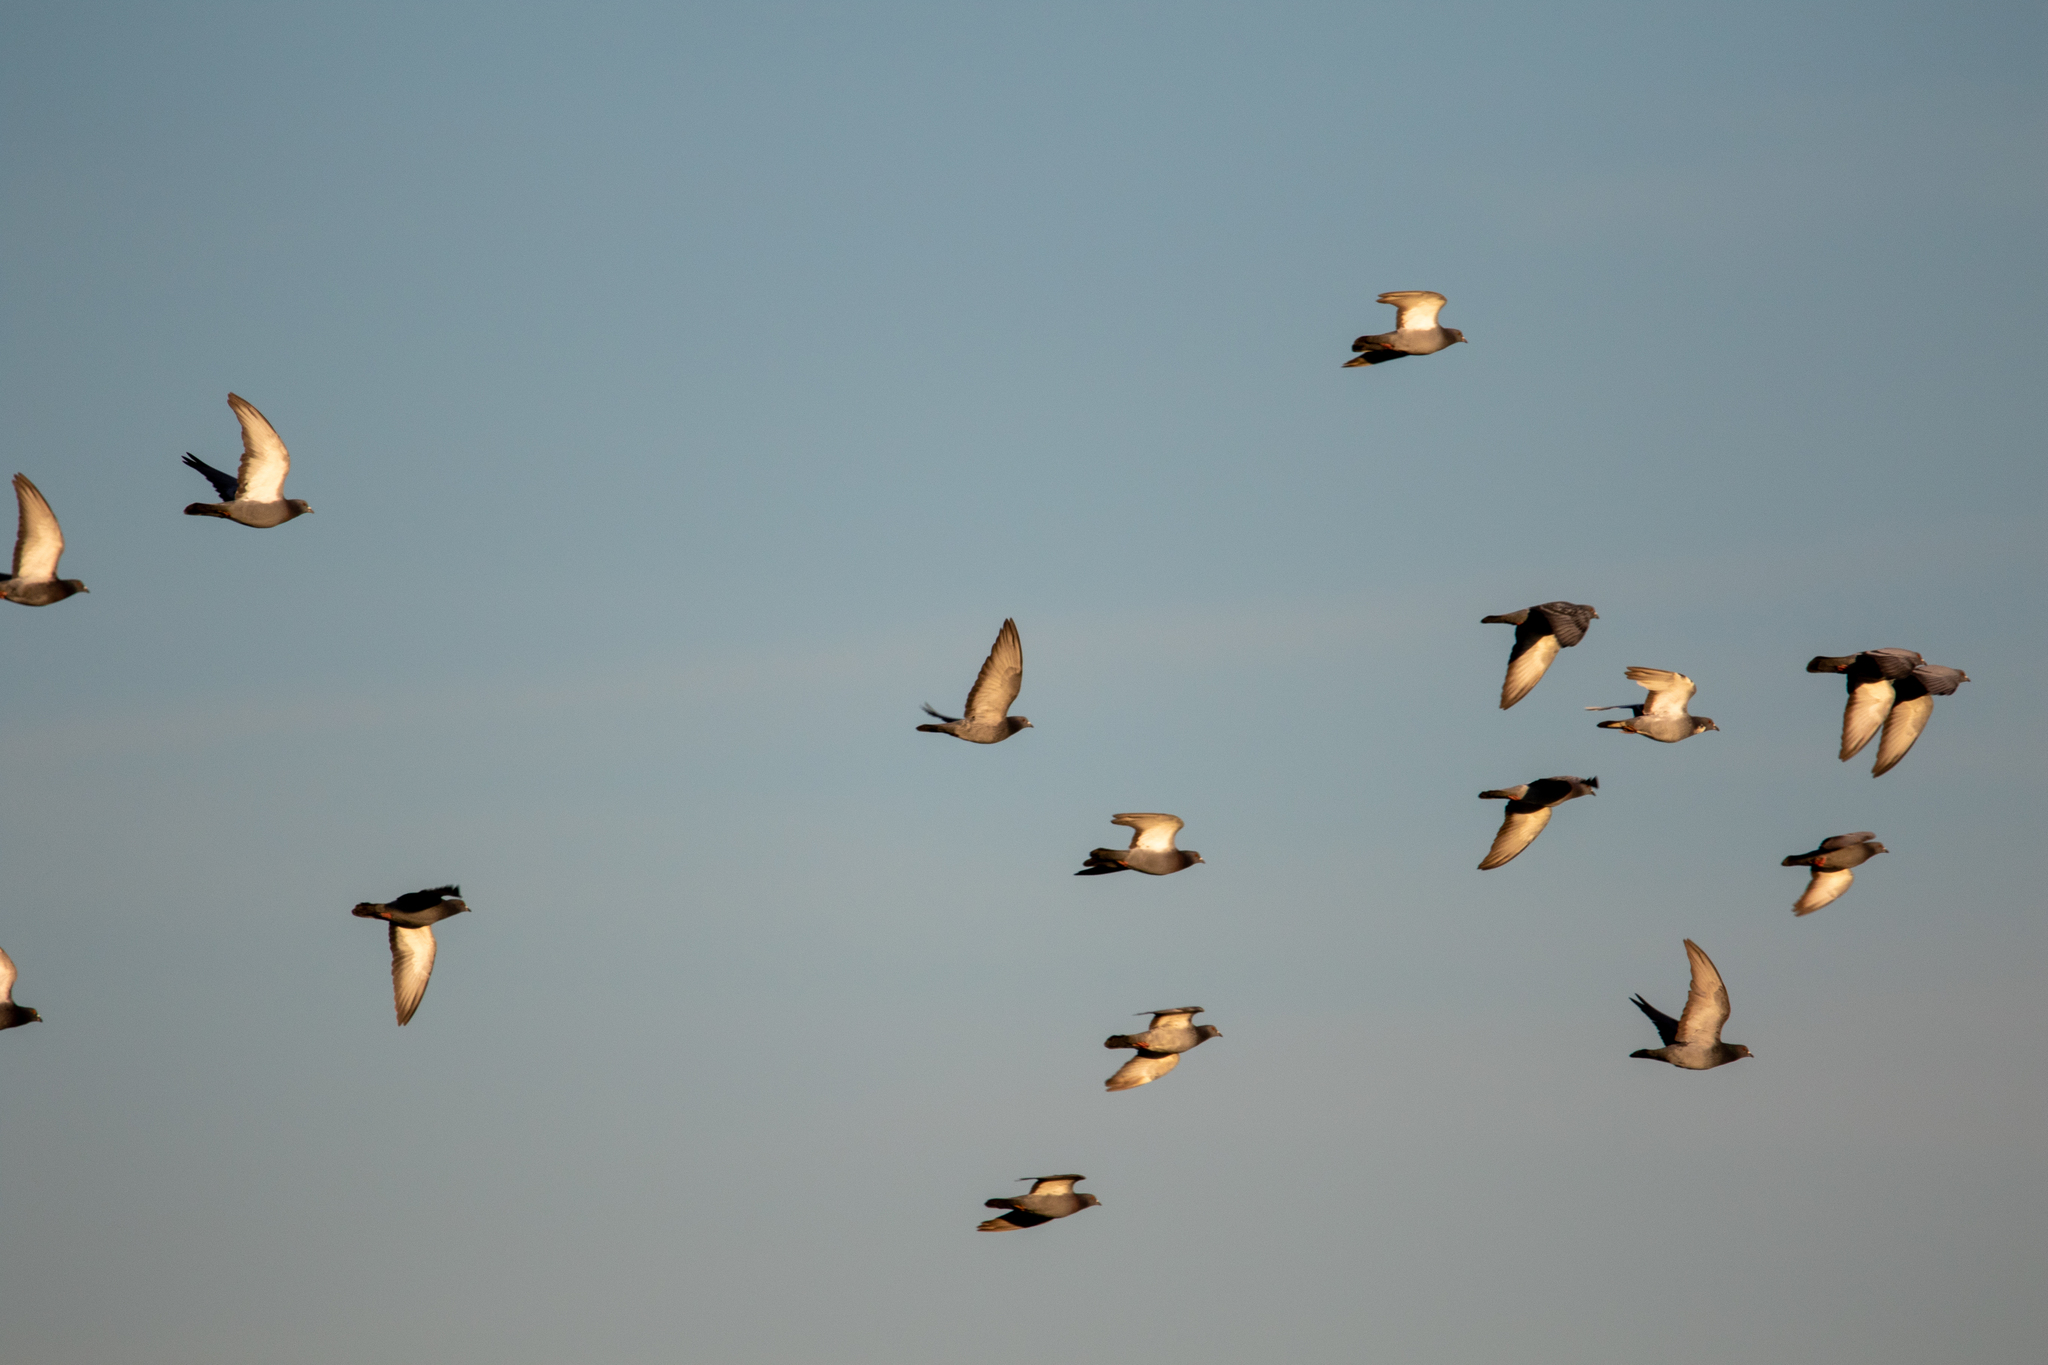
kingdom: Animalia
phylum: Chordata
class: Aves
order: Columbiformes
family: Columbidae
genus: Columba
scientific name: Columba livia
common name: Rock pigeon
